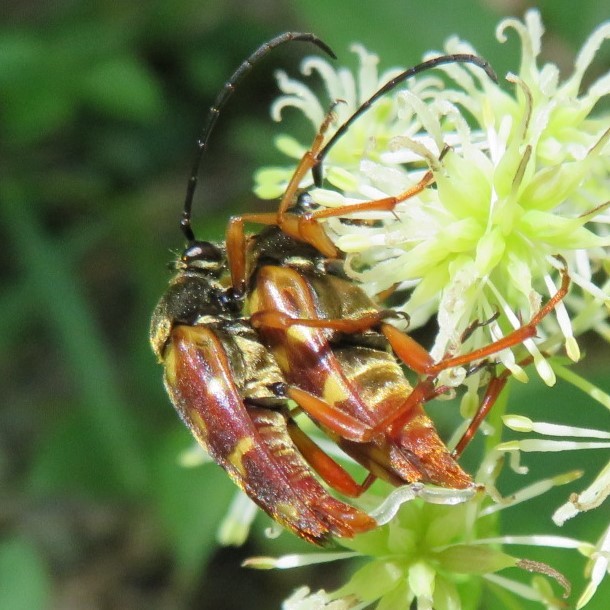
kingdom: Animalia
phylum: Arthropoda
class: Insecta
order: Coleoptera
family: Cerambycidae
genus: Typocerus
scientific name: Typocerus velutinus
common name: Banded longhorn beetle
